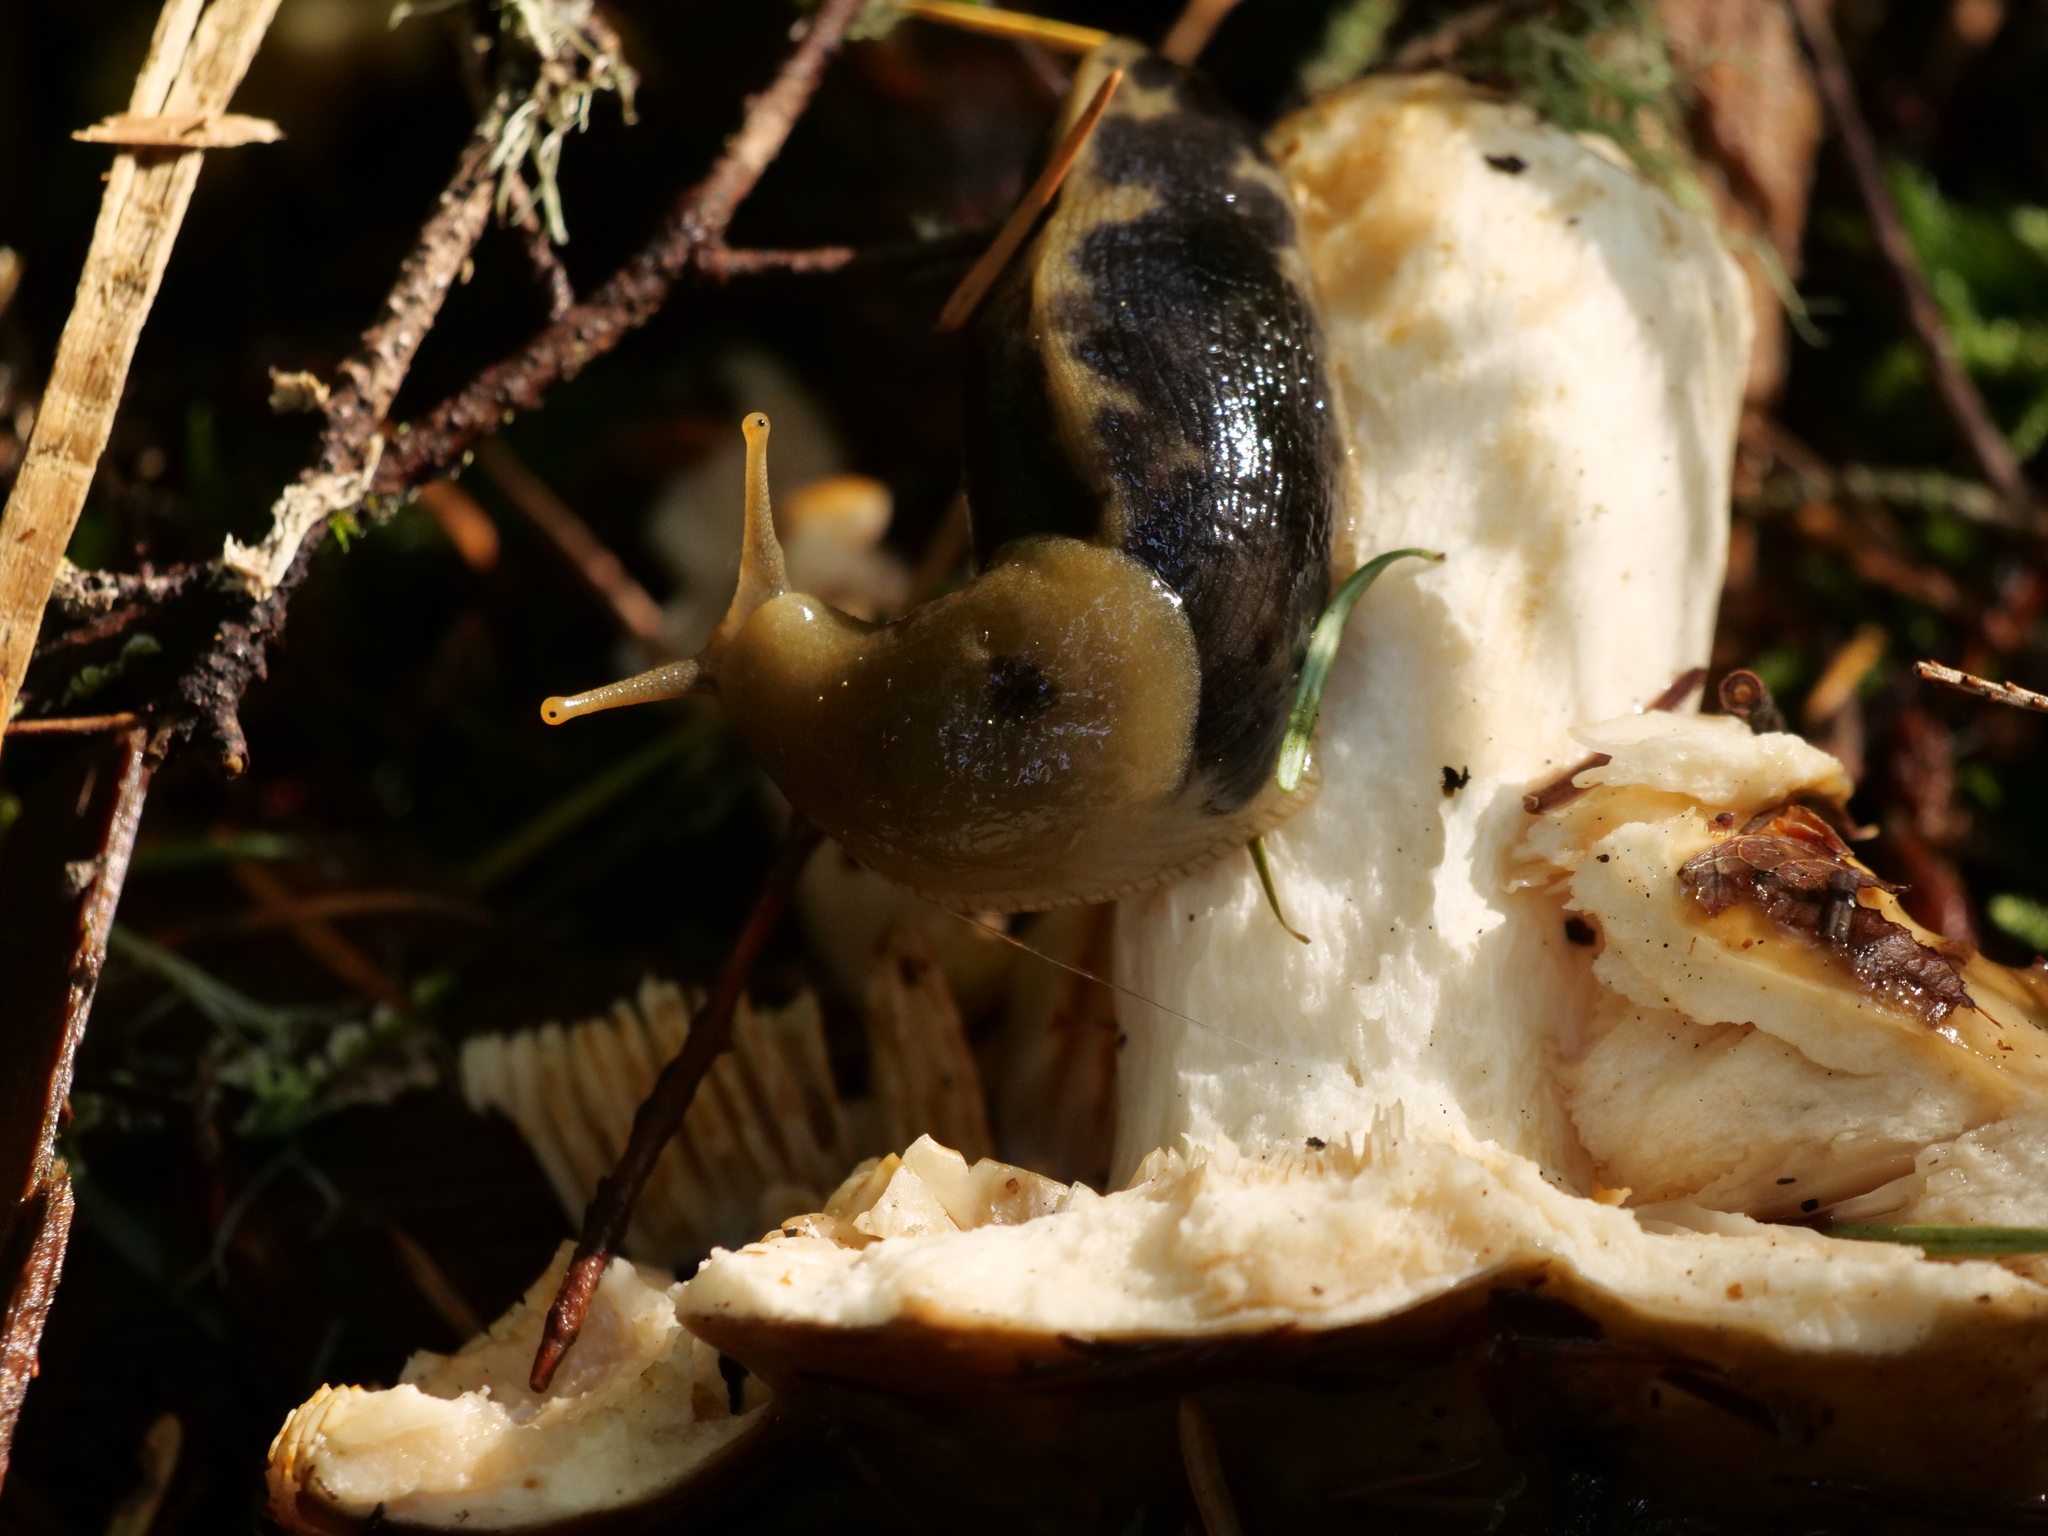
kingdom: Animalia
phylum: Mollusca
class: Gastropoda
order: Stylommatophora
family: Ariolimacidae
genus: Ariolimax
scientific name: Ariolimax columbianus
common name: Pacific banana slug
